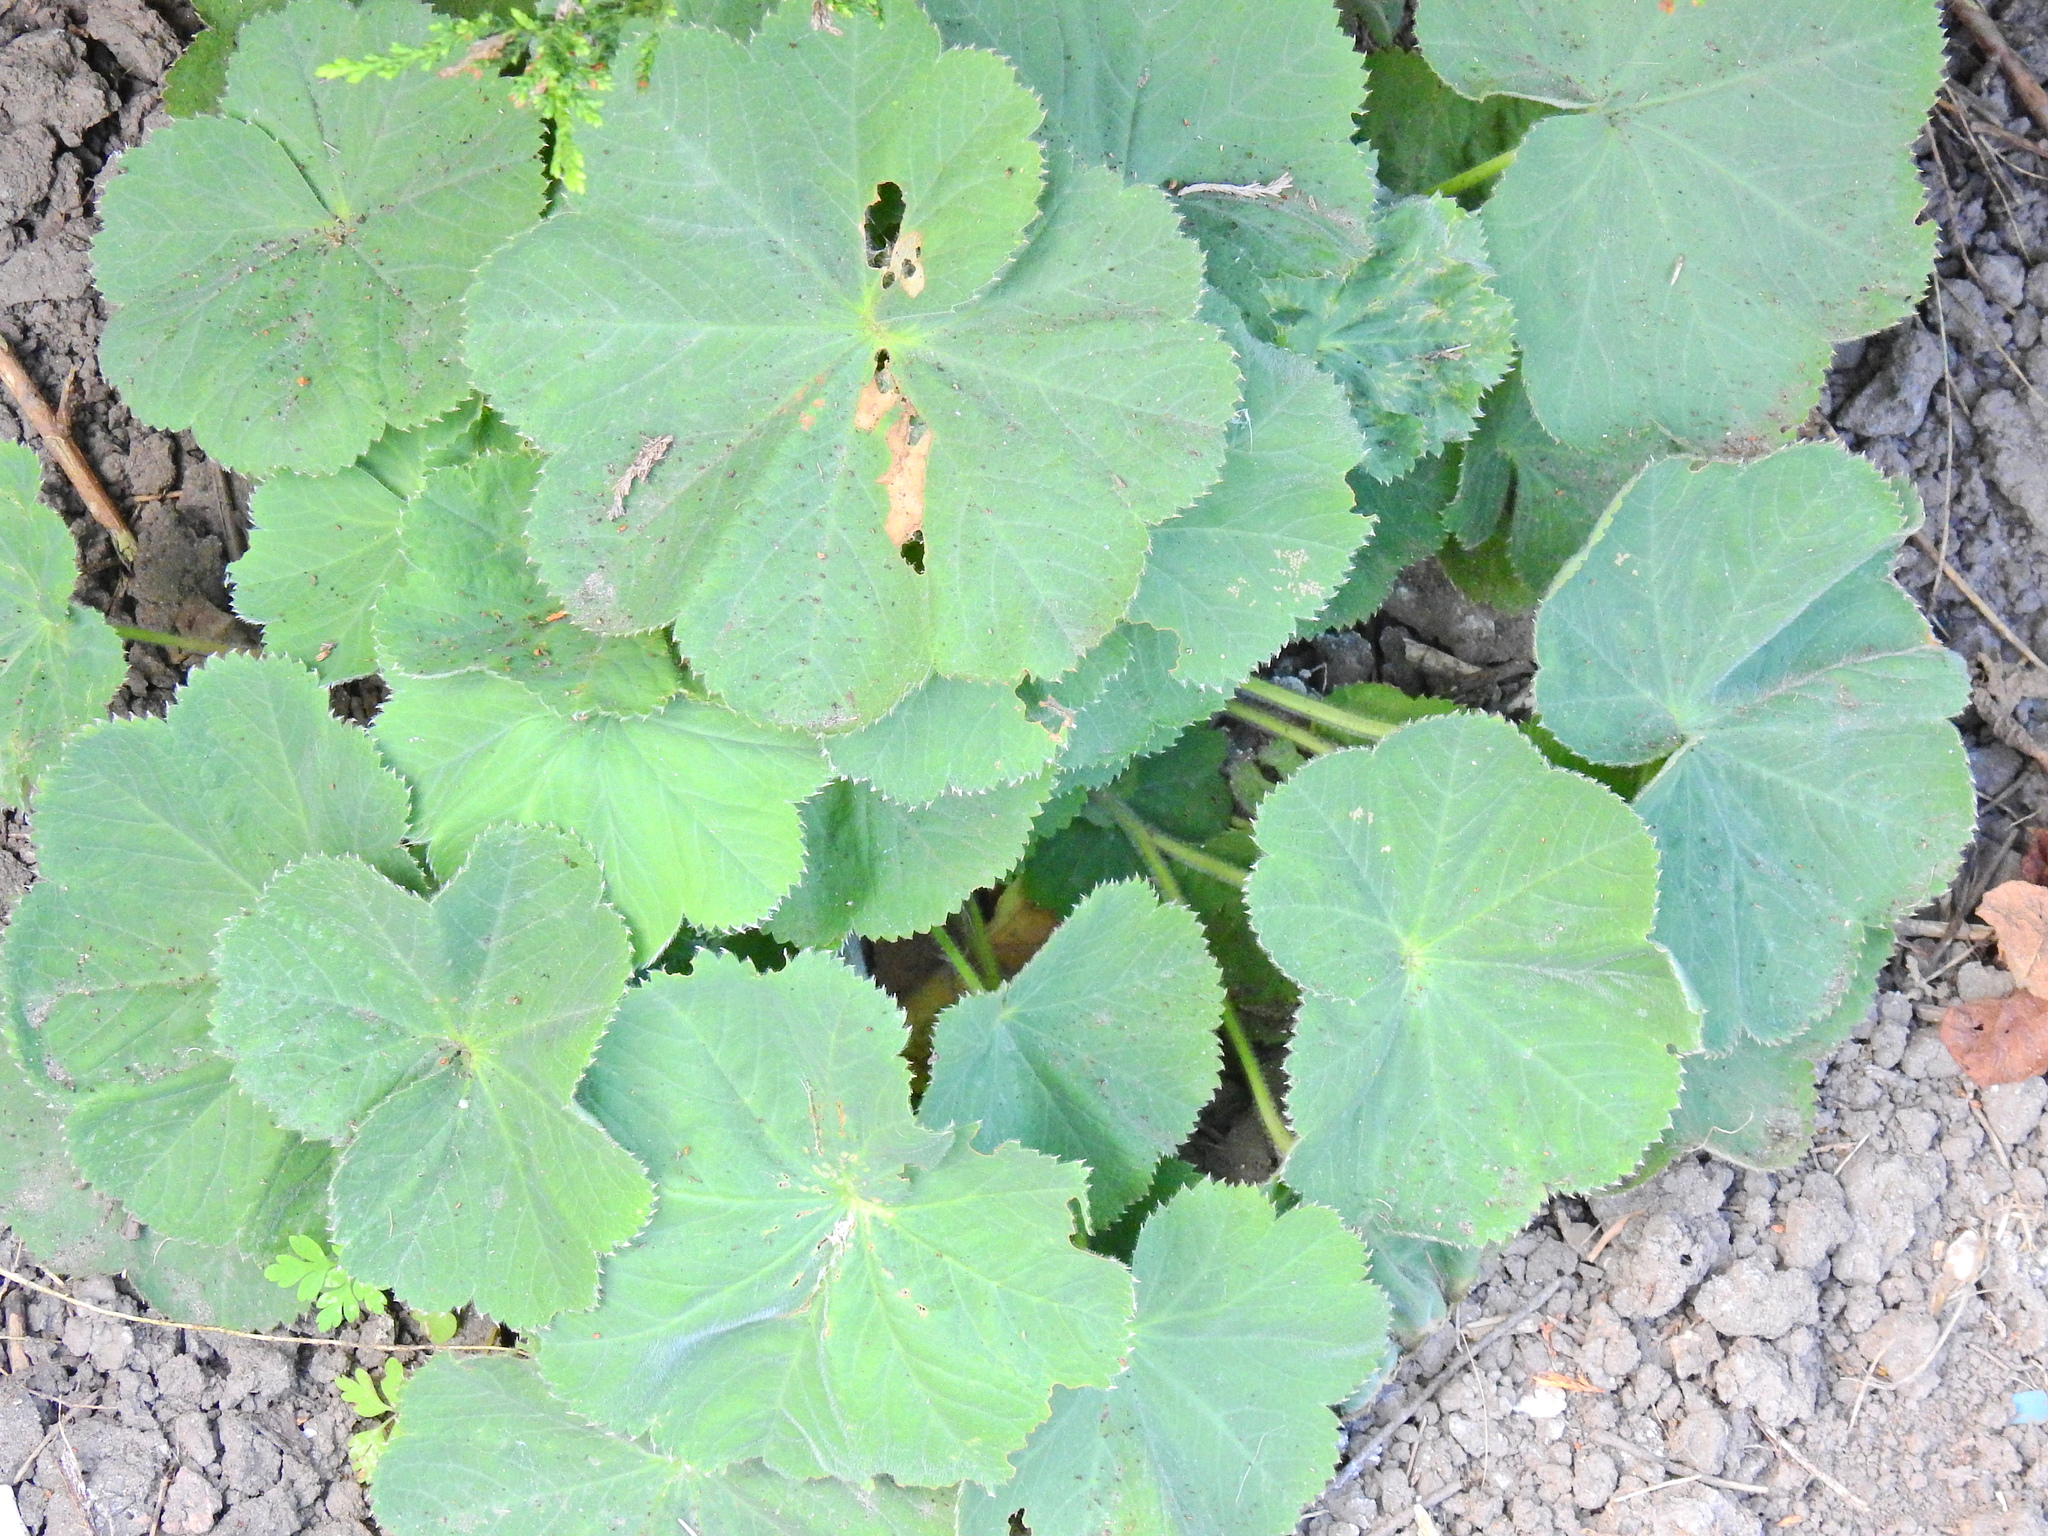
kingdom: Plantae
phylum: Tracheophyta
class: Magnoliopsida
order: Rosales
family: Rosaceae
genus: Alchemilla
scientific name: Alchemilla mollis
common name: Lady's-mantle
